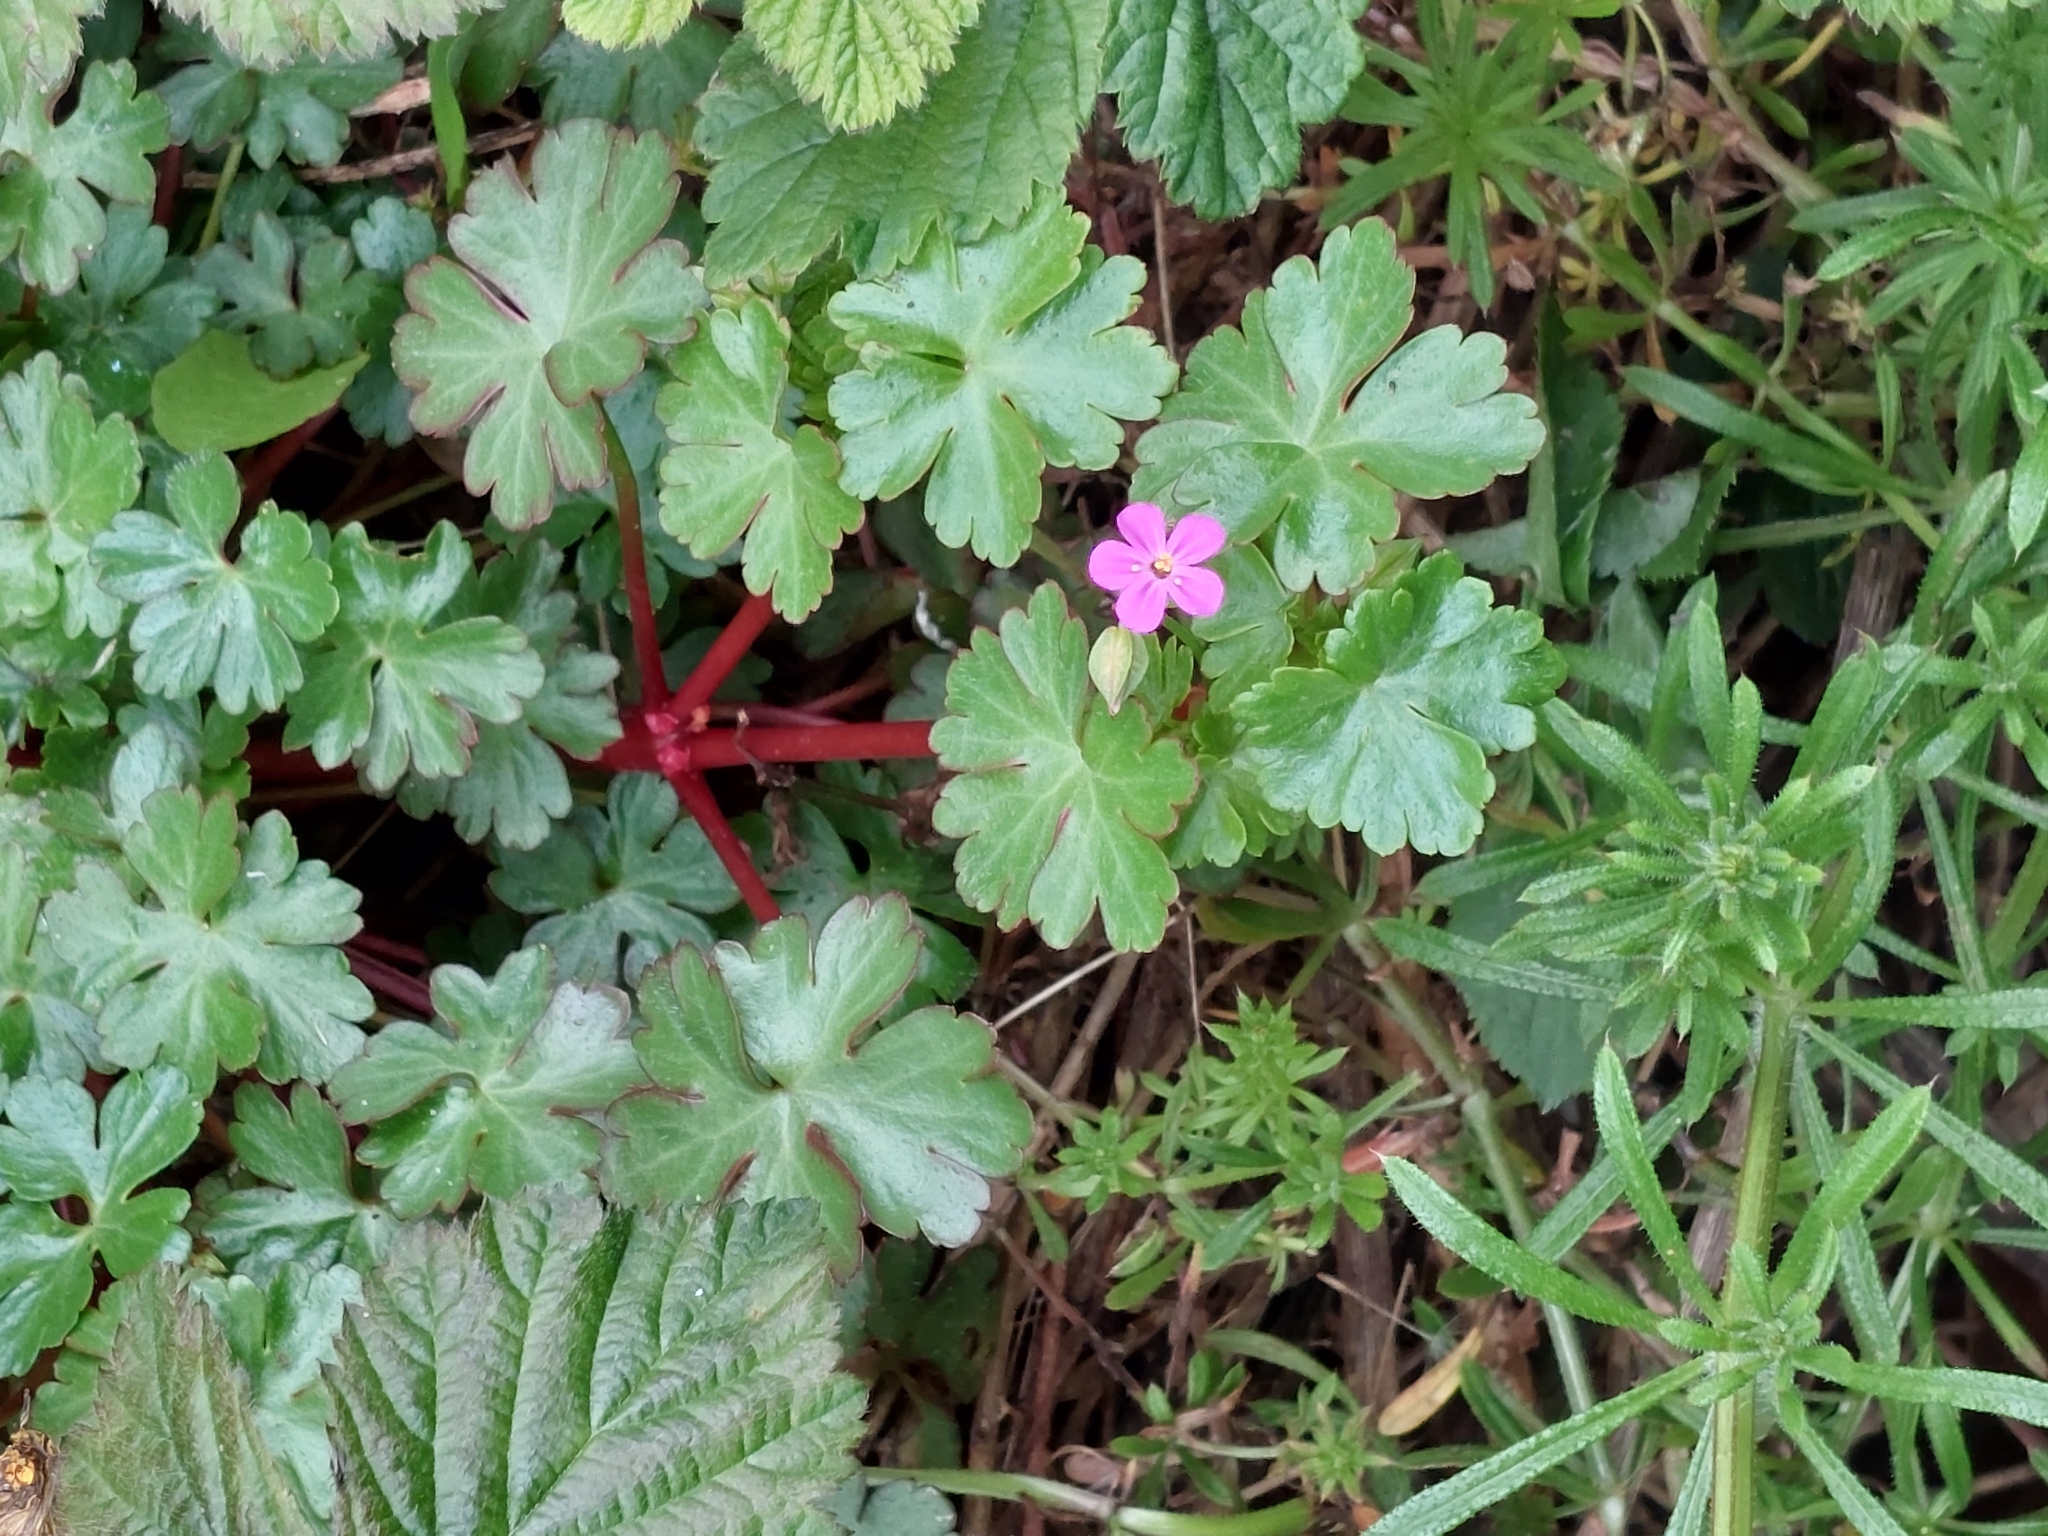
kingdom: Plantae
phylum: Tracheophyta
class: Magnoliopsida
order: Geraniales
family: Geraniaceae
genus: Geranium
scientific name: Geranium lucidum
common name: Shining crane's-bill
